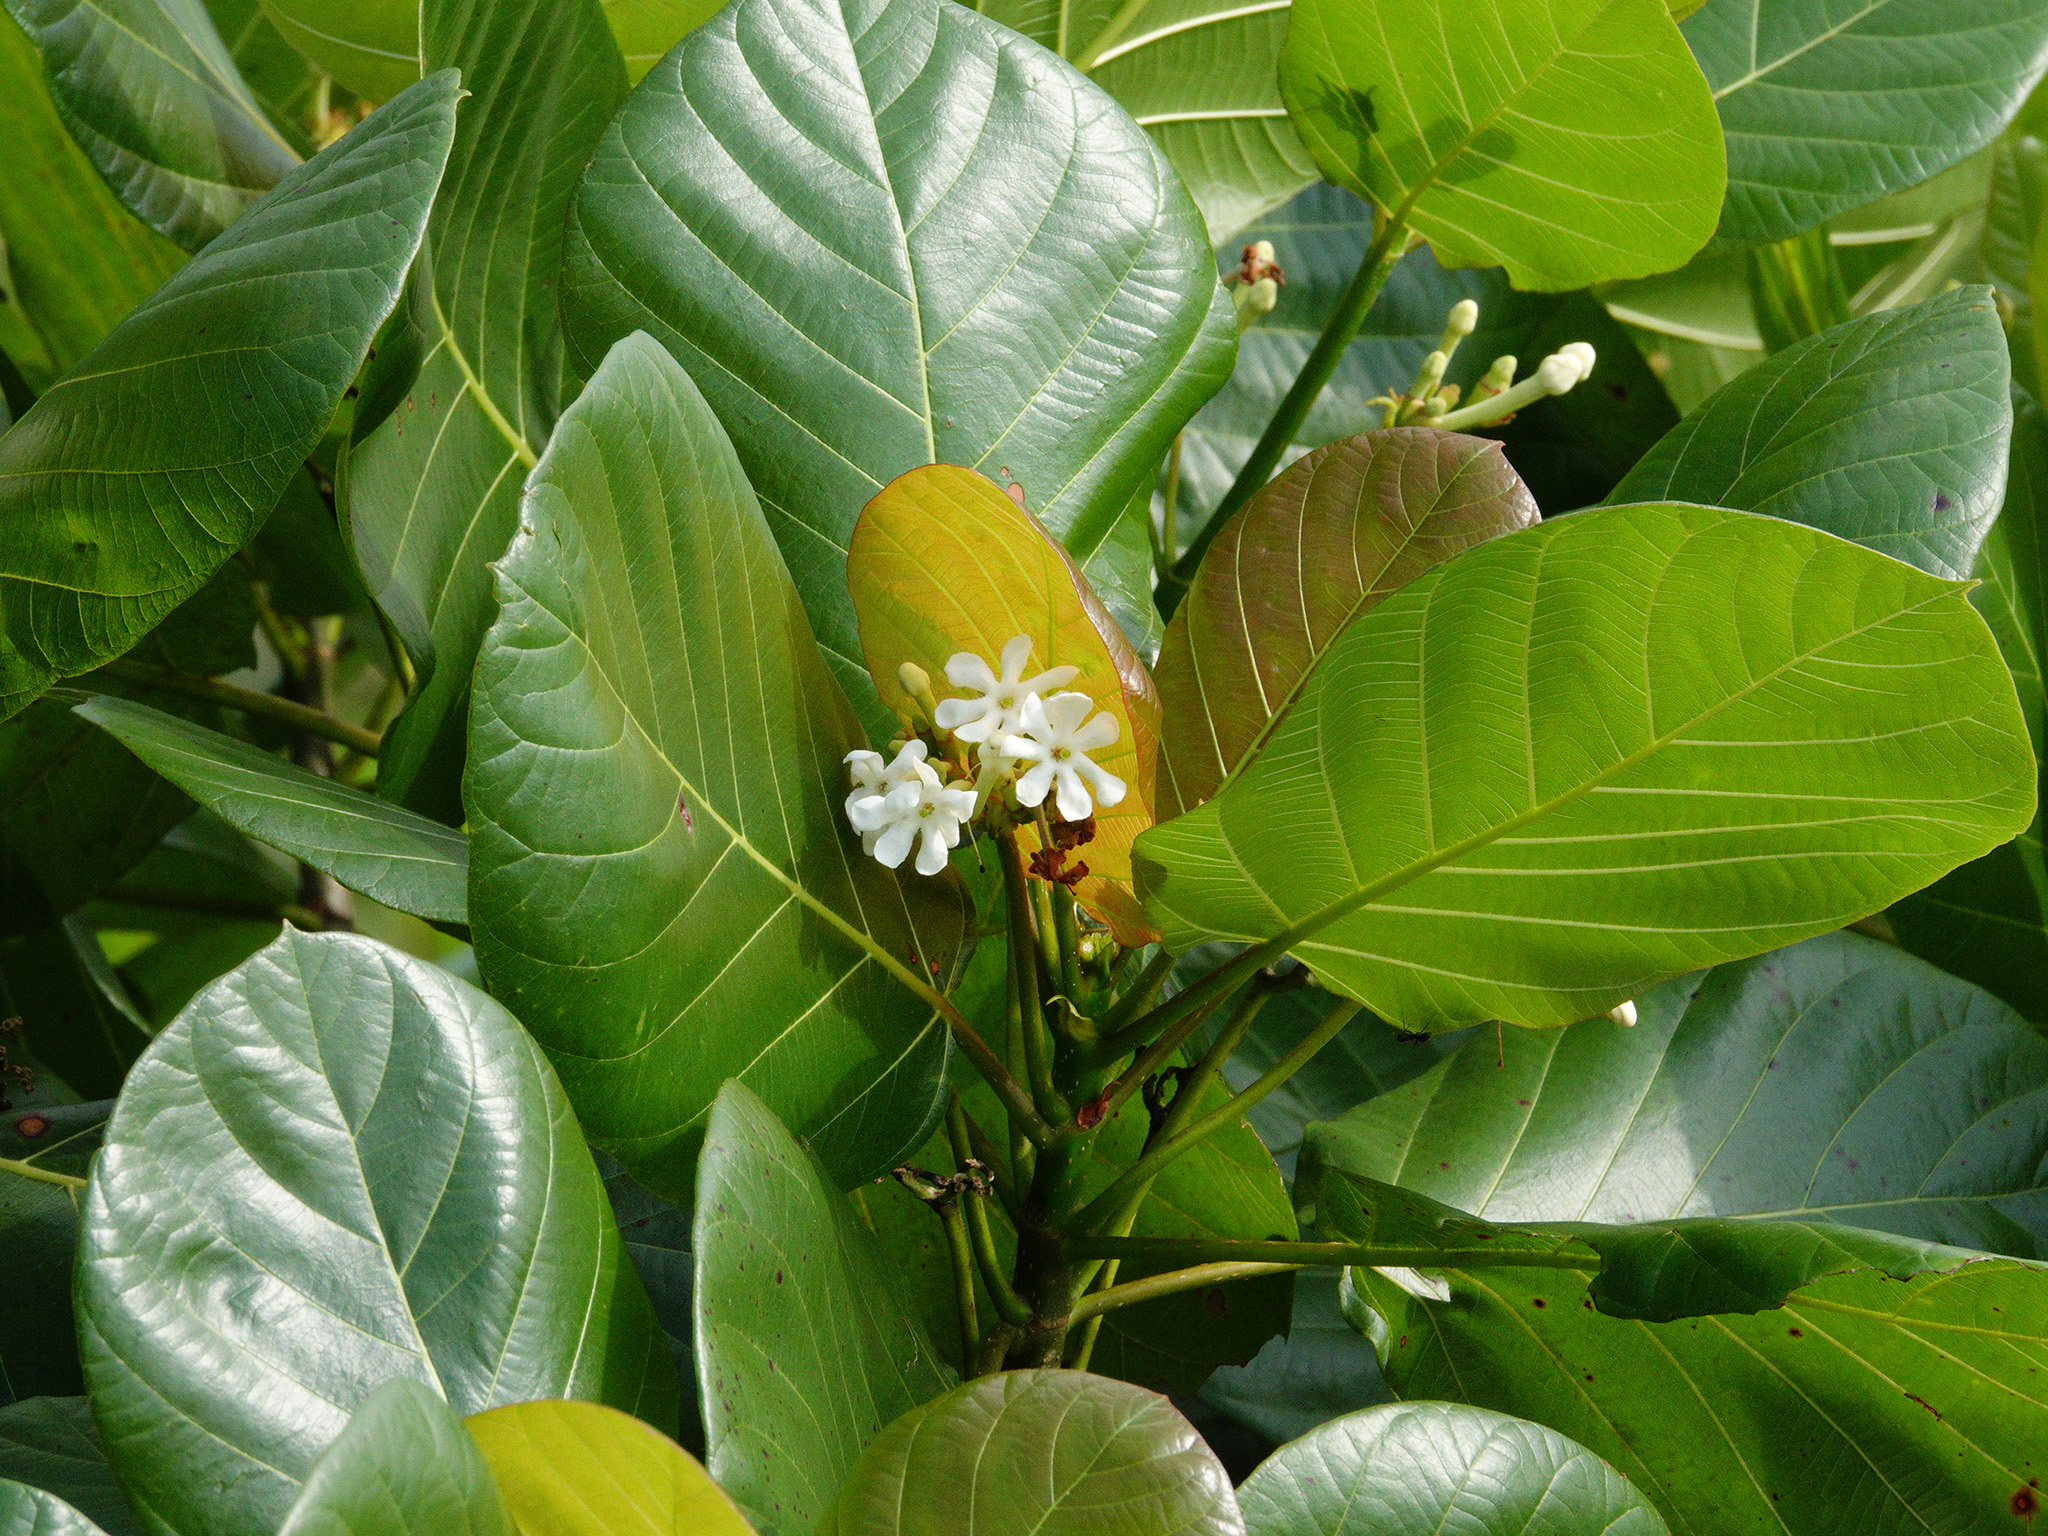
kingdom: Plantae
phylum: Tracheophyta
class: Magnoliopsida
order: Gentianales
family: Rubiaceae
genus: Guettarda
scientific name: Guettarda speciosa
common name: Sea randa
